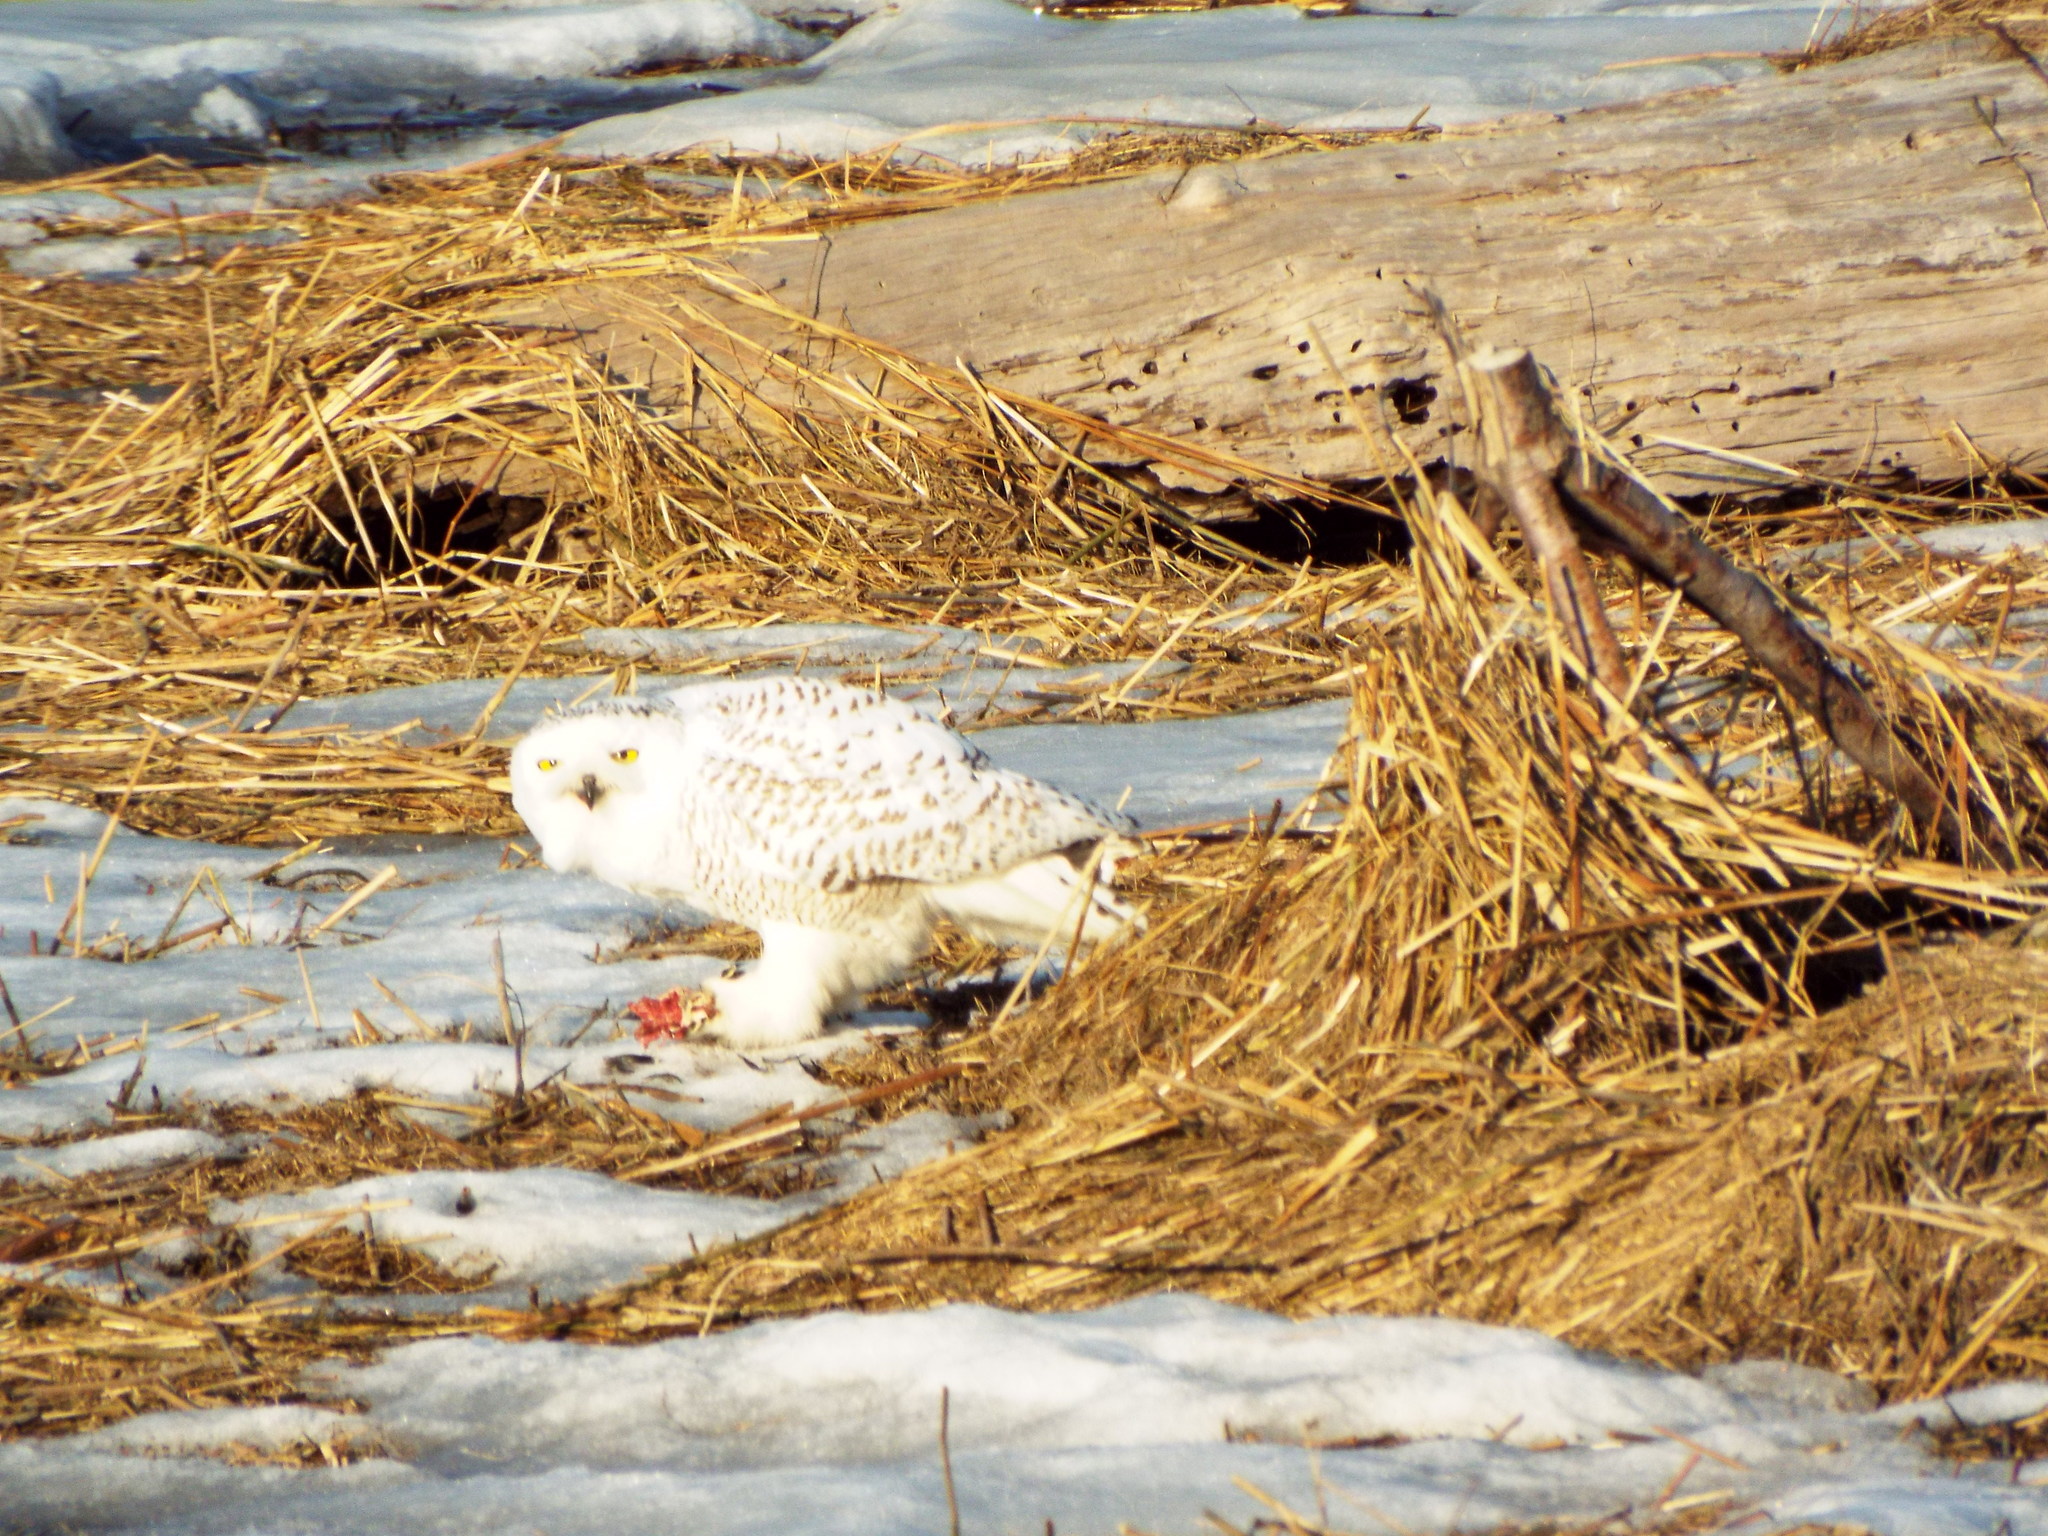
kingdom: Animalia
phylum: Chordata
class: Aves
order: Strigiformes
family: Strigidae
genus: Bubo
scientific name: Bubo scandiacus
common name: Snowy owl
